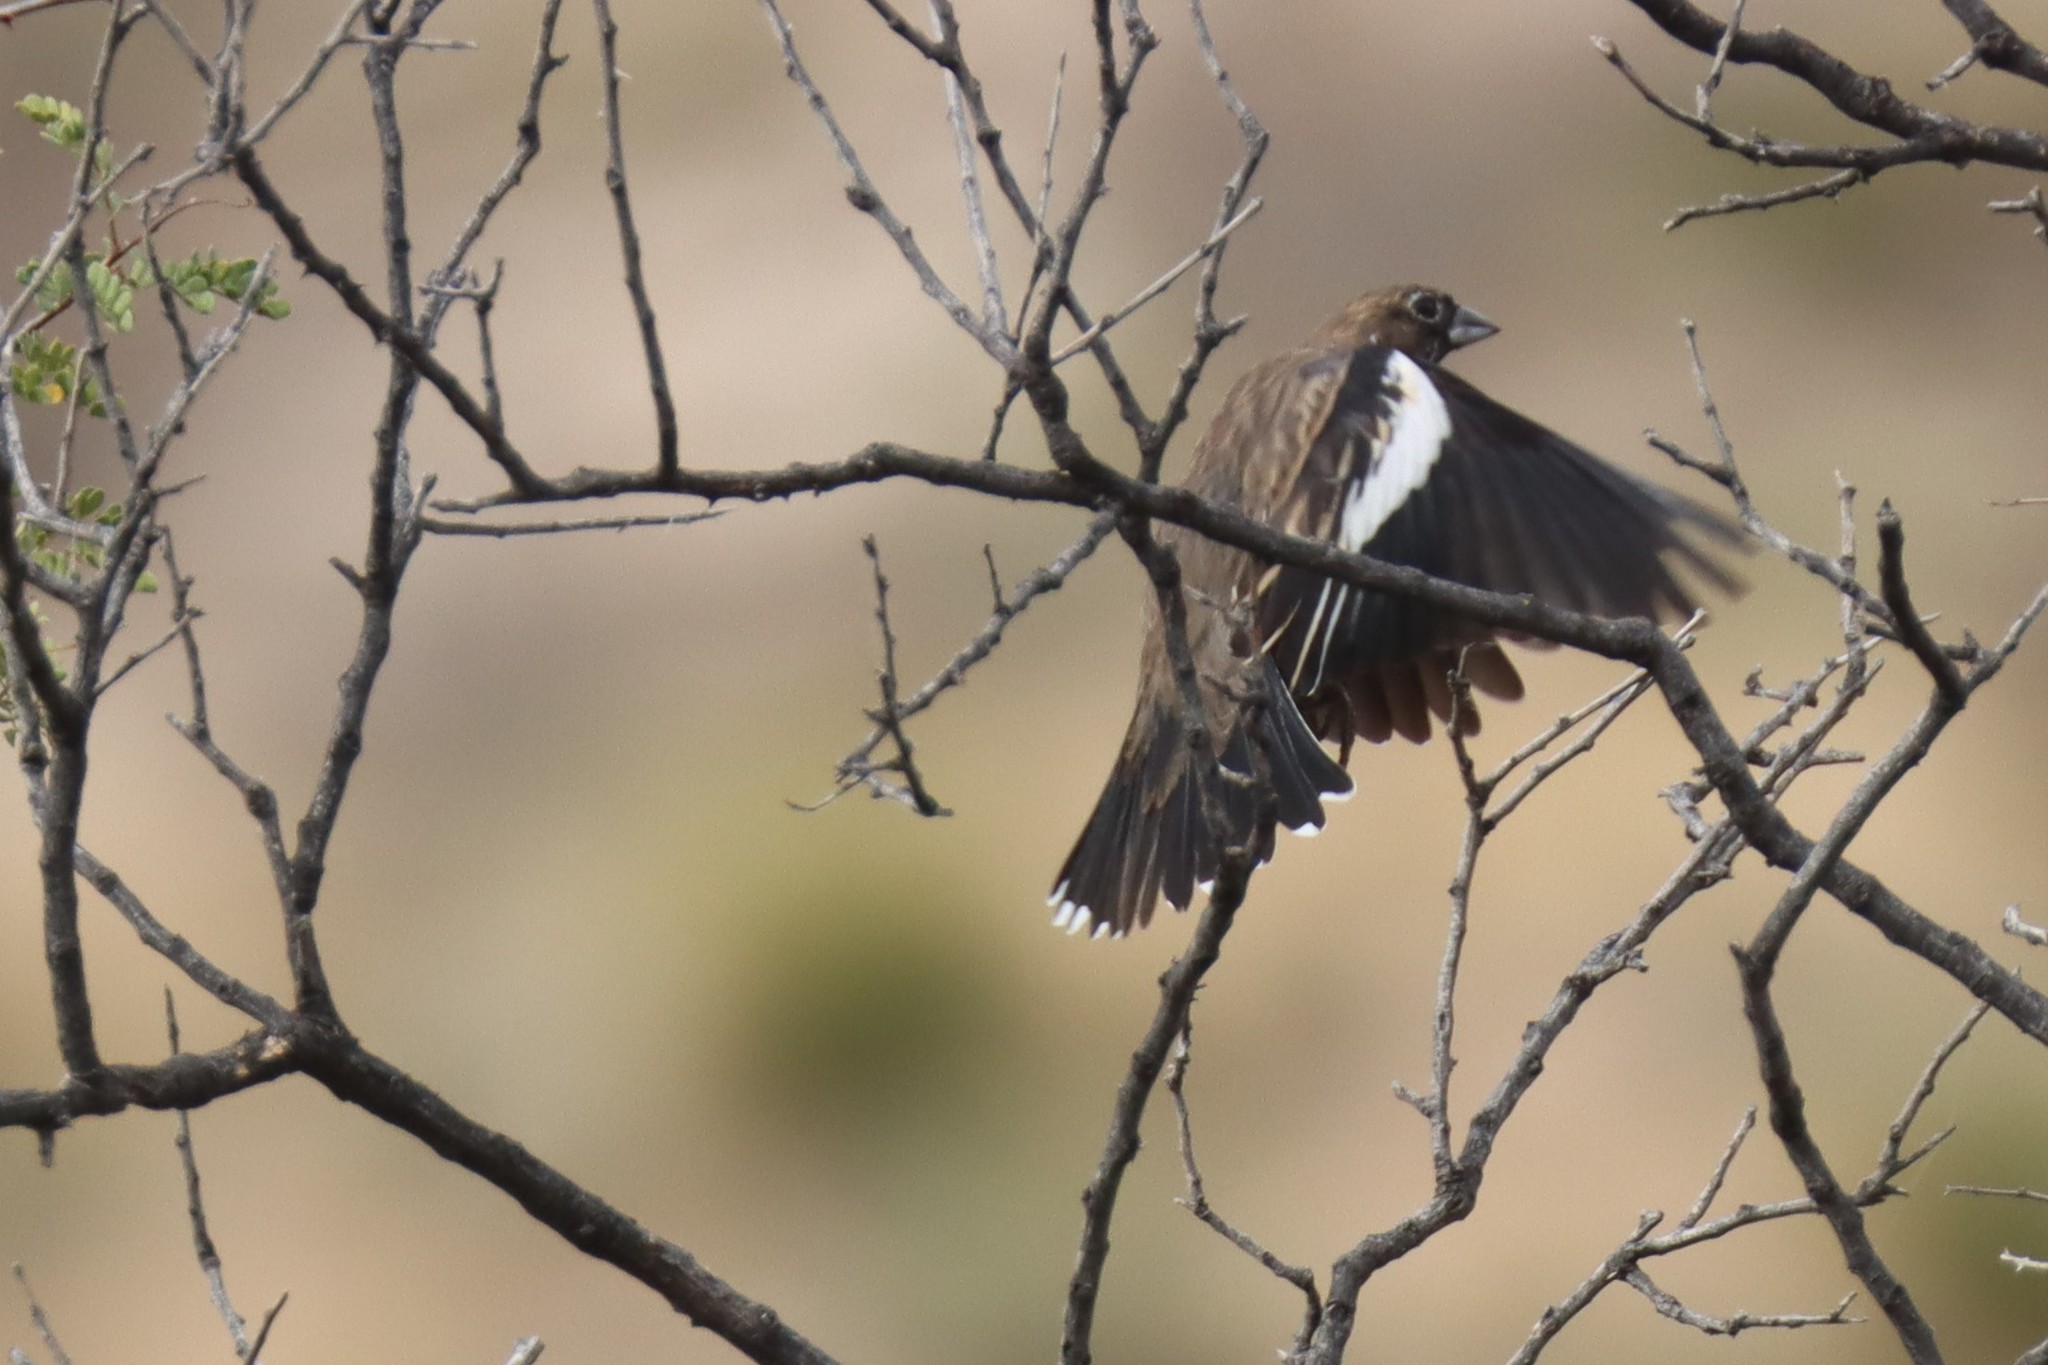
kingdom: Animalia
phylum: Chordata
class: Aves
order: Passeriformes
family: Passerellidae
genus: Calamospiza
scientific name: Calamospiza melanocorys
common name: Lark bunting
